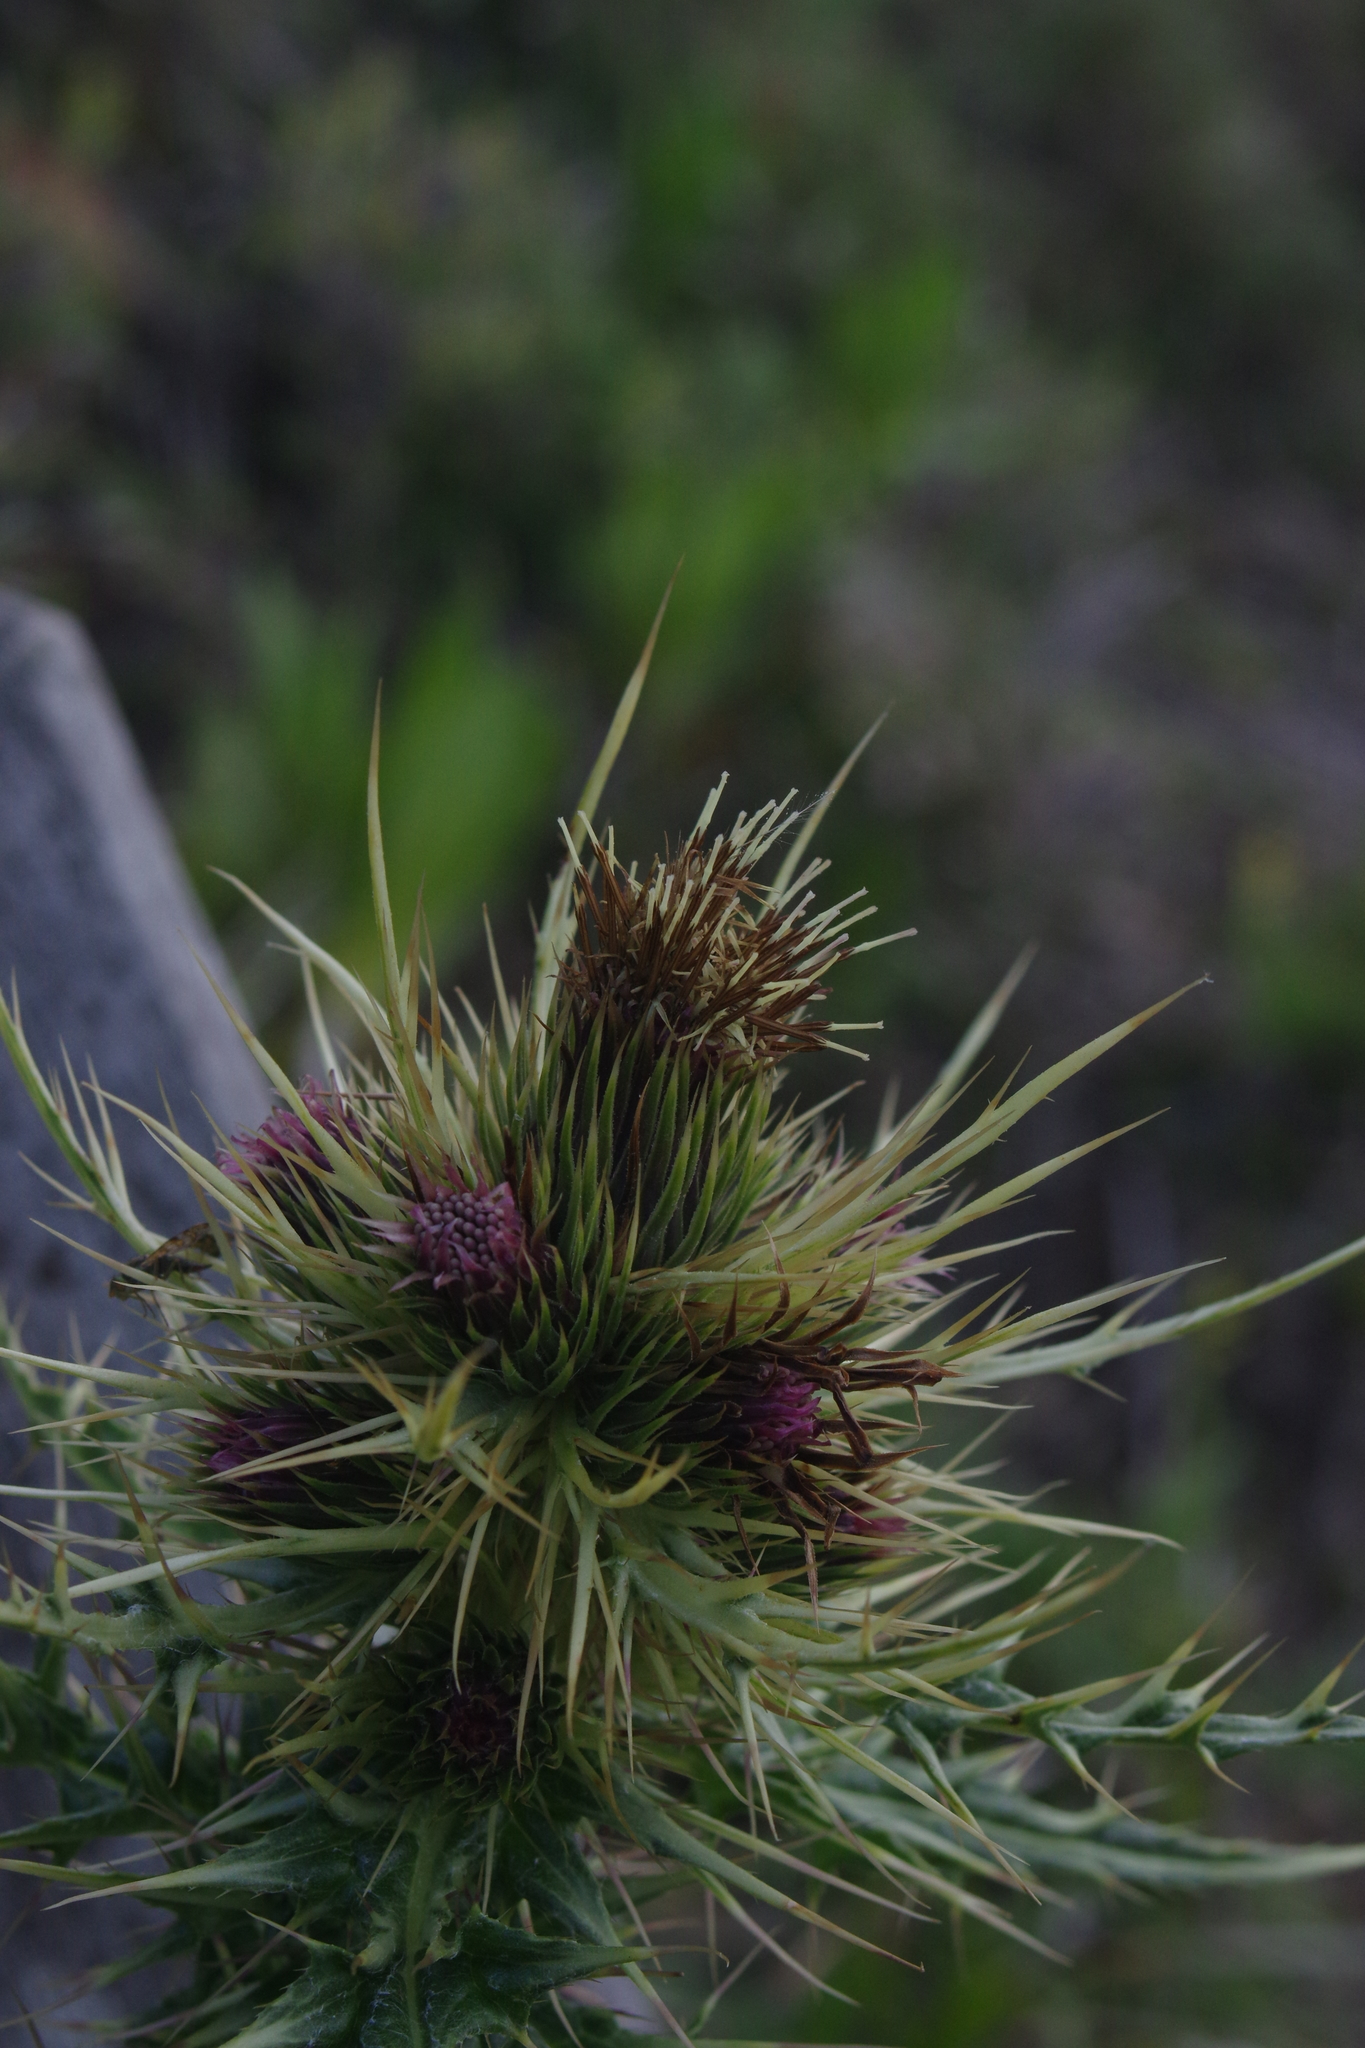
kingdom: Plantae
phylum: Tracheophyta
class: Magnoliopsida
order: Asterales
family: Asteraceae
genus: Cirsium
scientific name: Cirsium arisanense
